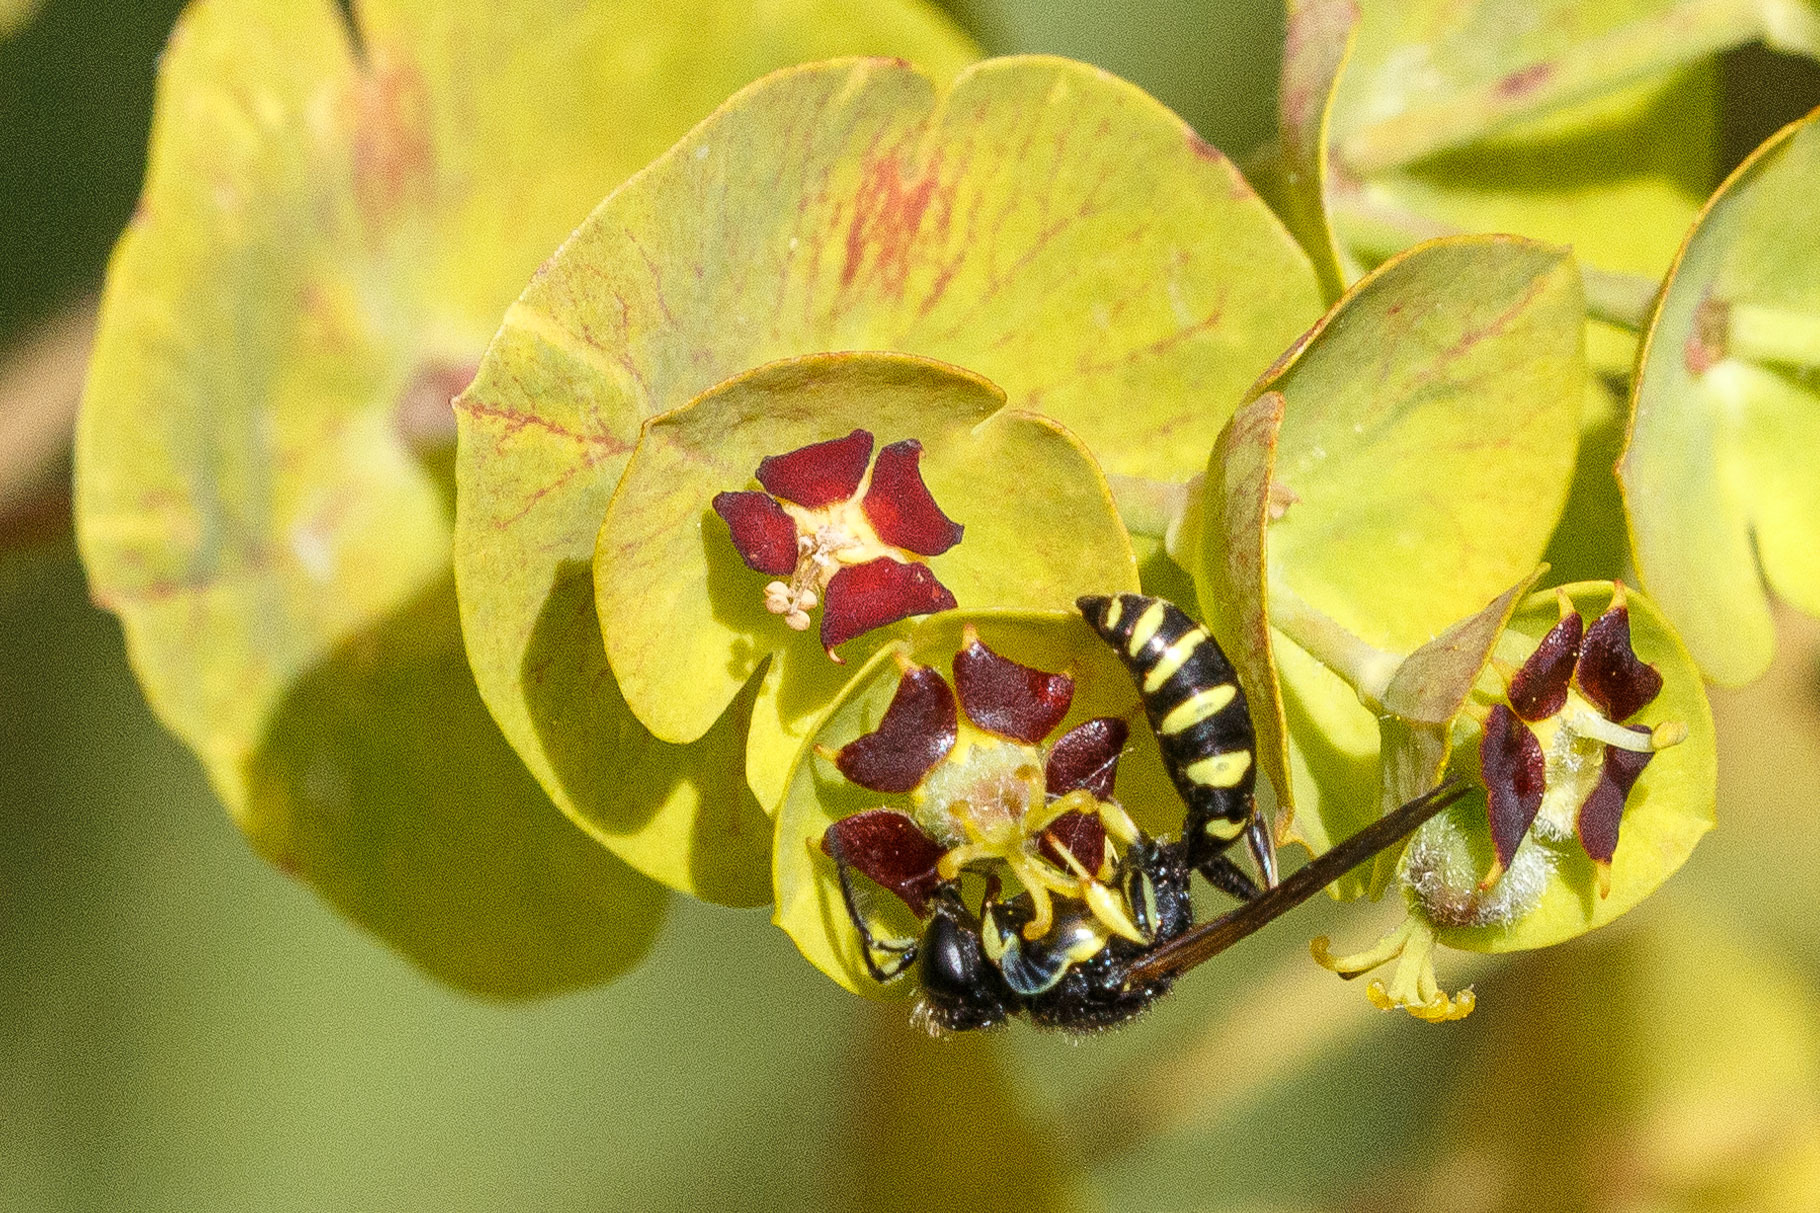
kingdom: Animalia
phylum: Arthropoda
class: Insecta
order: Hymenoptera
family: Crabronidae
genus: Crabro
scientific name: Crabro latipes
